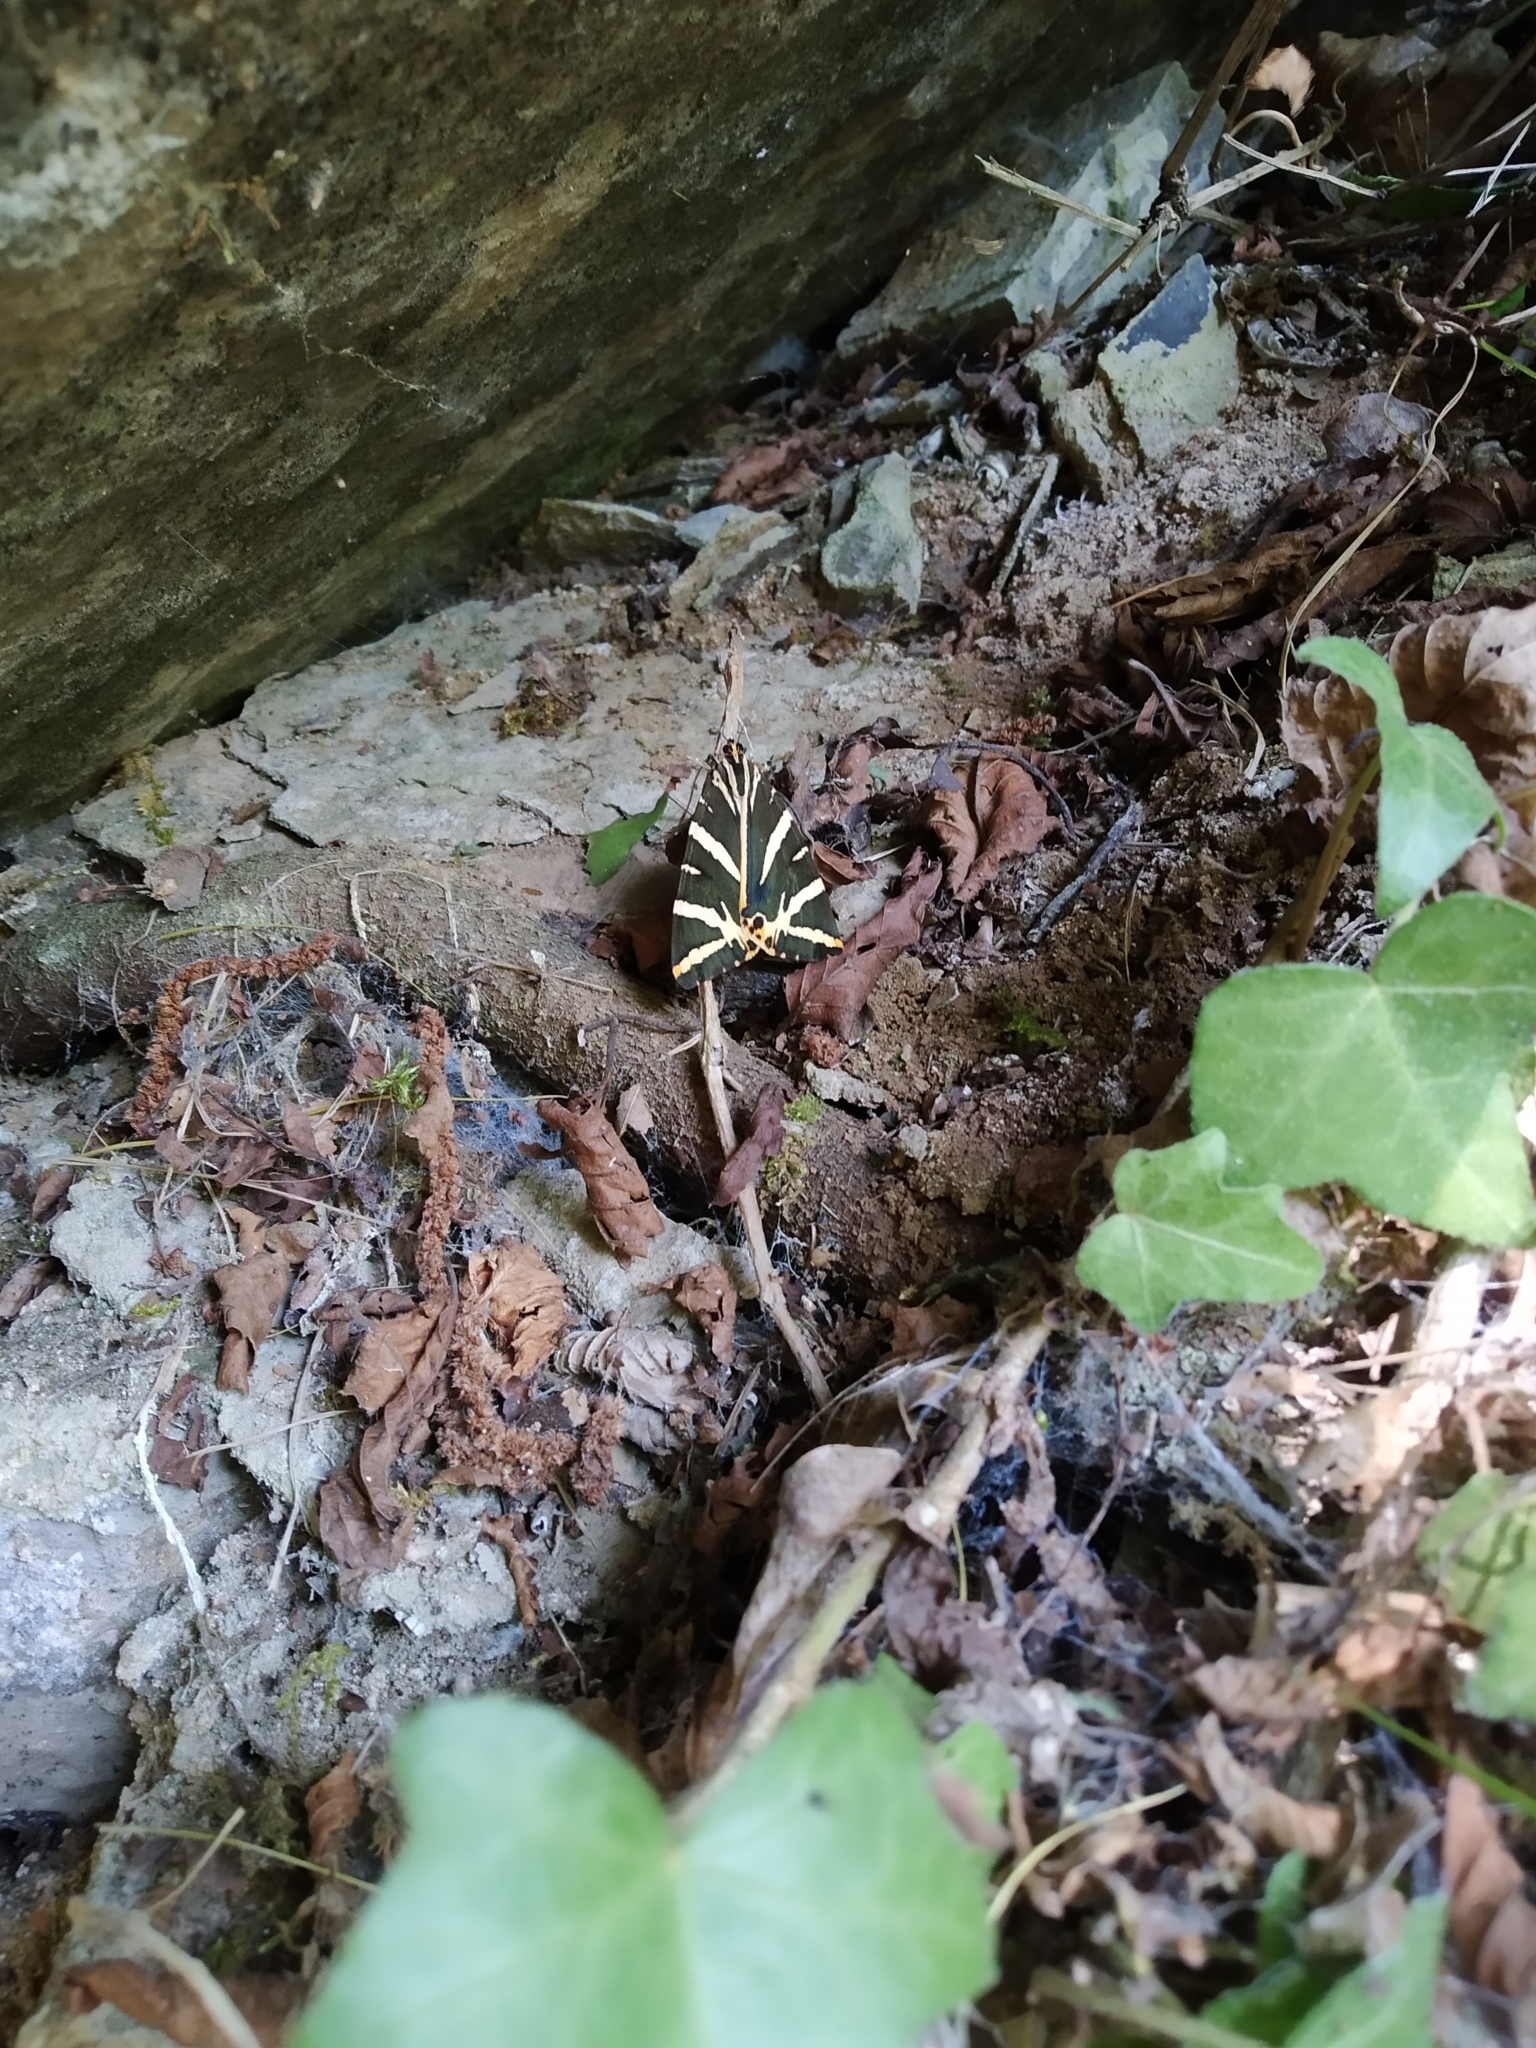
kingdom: Animalia
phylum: Arthropoda
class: Insecta
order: Lepidoptera
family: Erebidae
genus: Euplagia
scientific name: Euplagia quadripunctaria
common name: Jersey tiger
